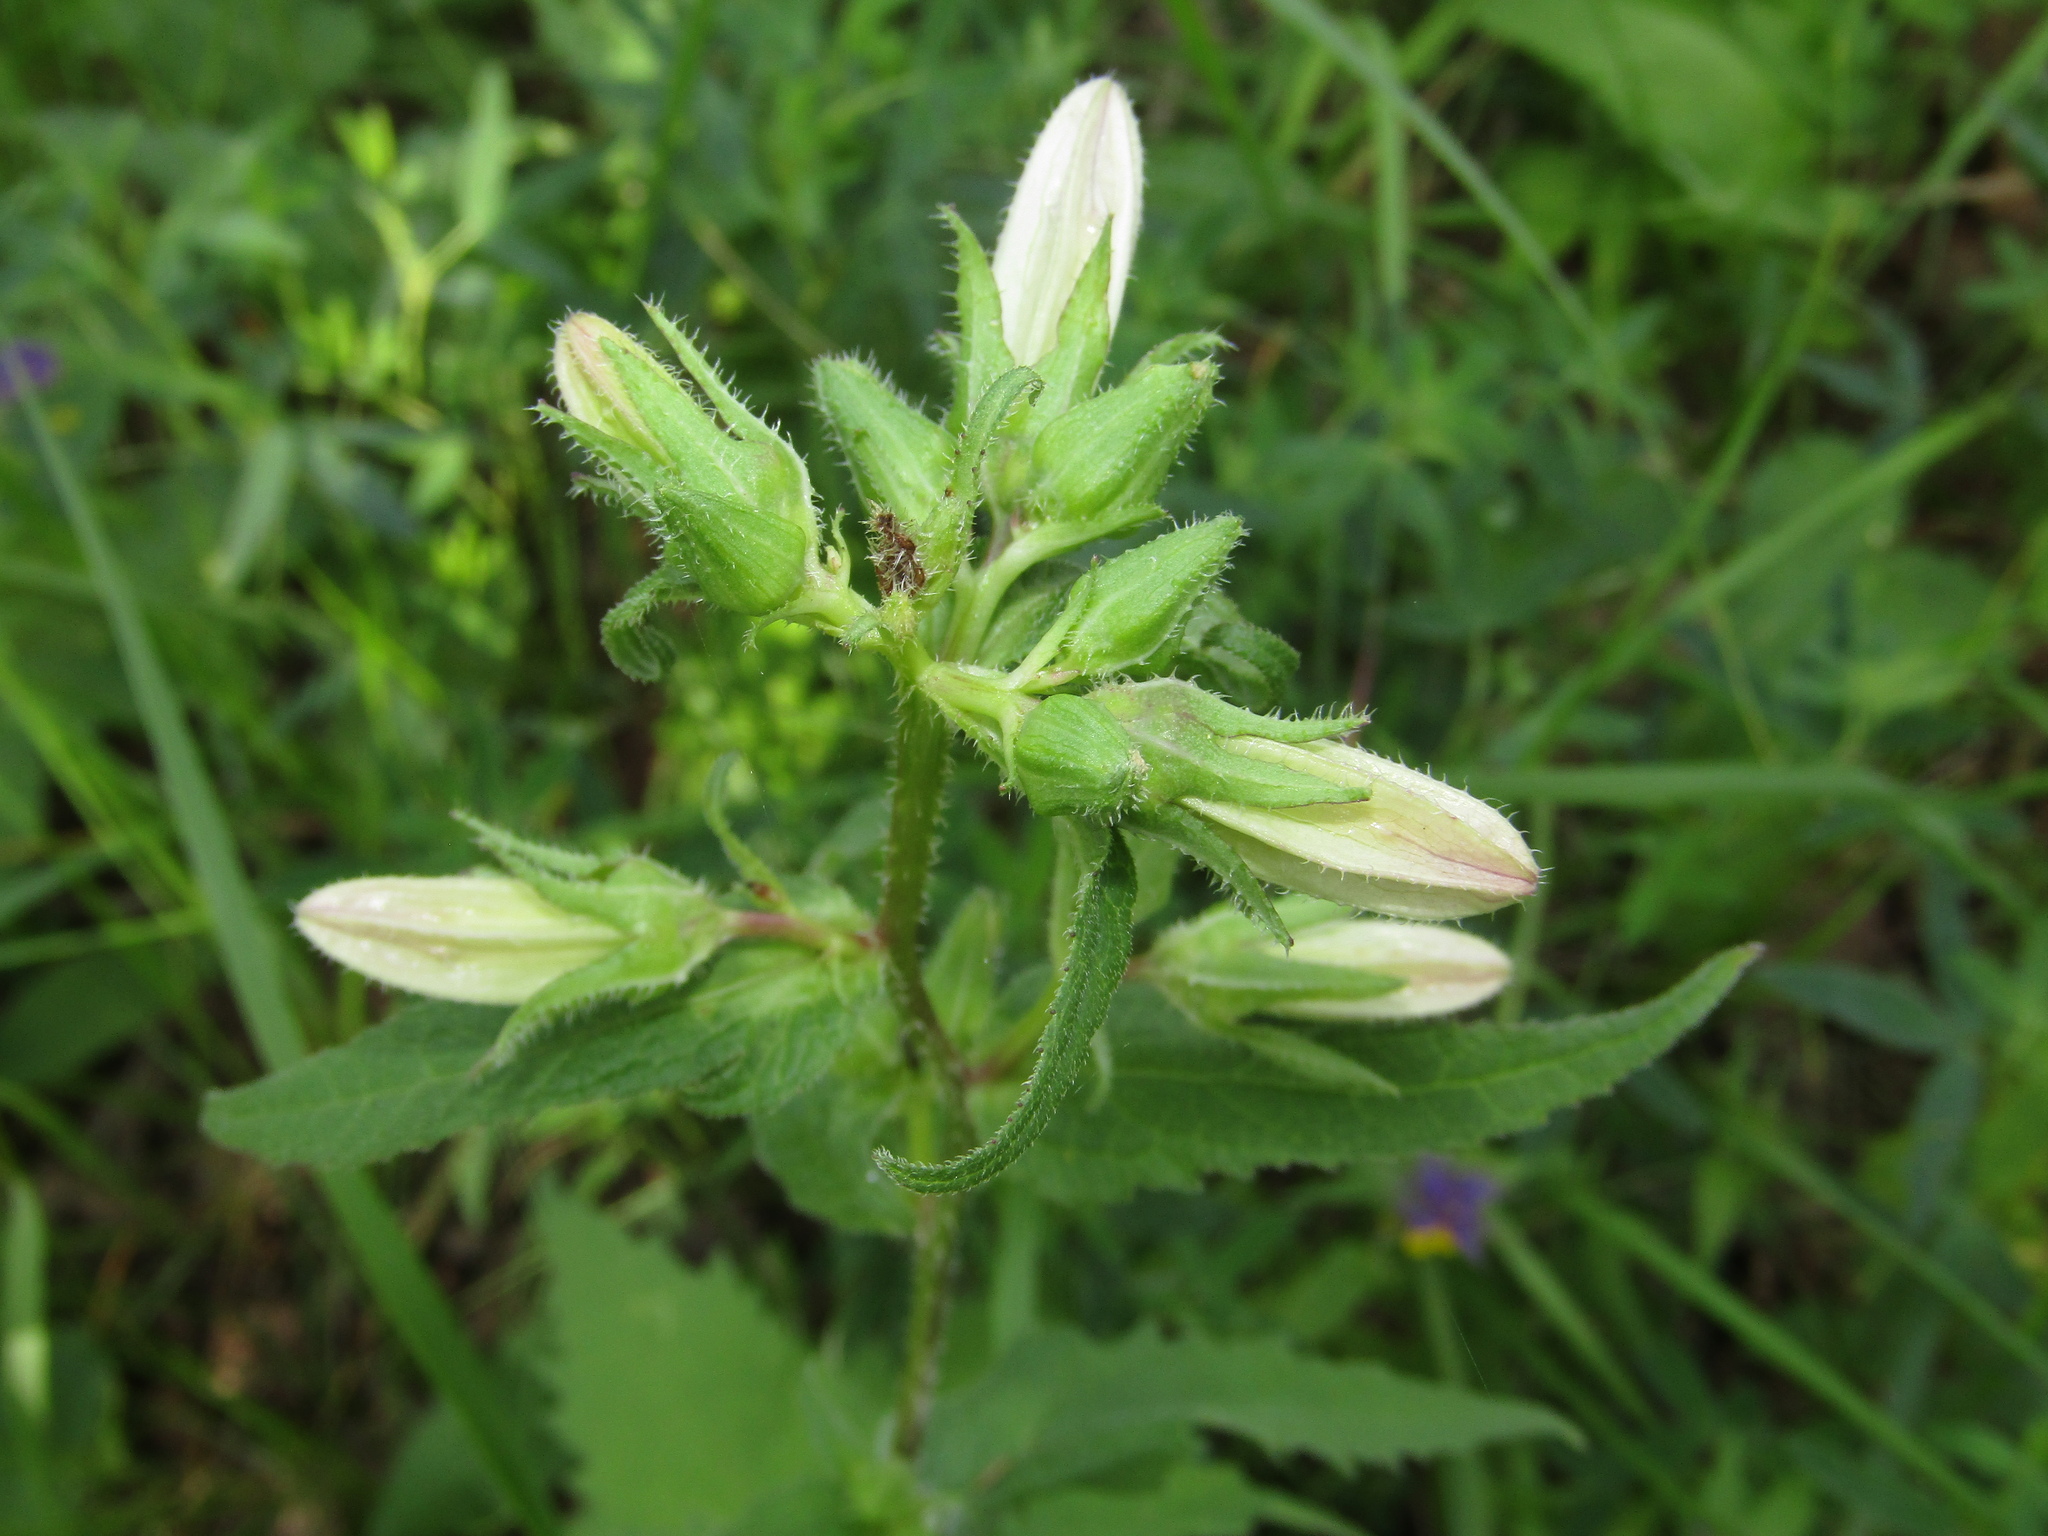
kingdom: Plantae
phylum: Tracheophyta
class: Magnoliopsida
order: Asterales
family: Campanulaceae
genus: Campanula
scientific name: Campanula trachelium
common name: Nettle-leaved bellflower
